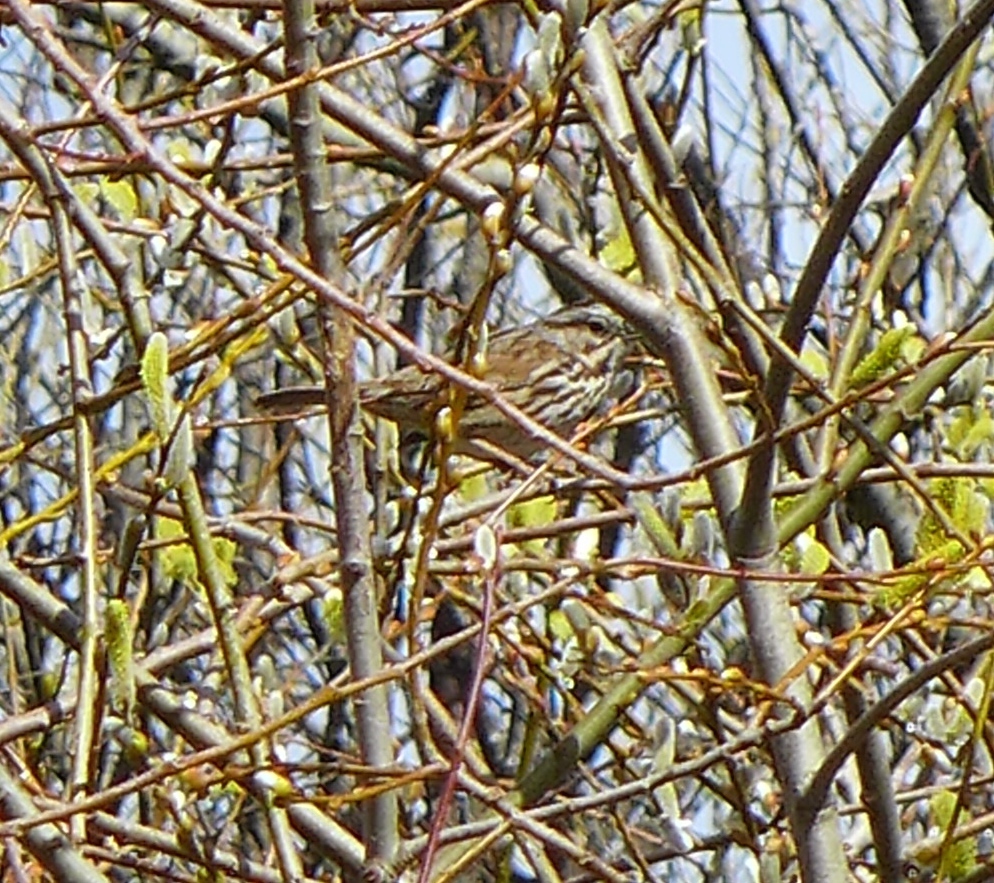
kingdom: Animalia
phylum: Chordata
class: Aves
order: Passeriformes
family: Passerellidae
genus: Melospiza
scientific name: Melospiza melodia
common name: Song sparrow
